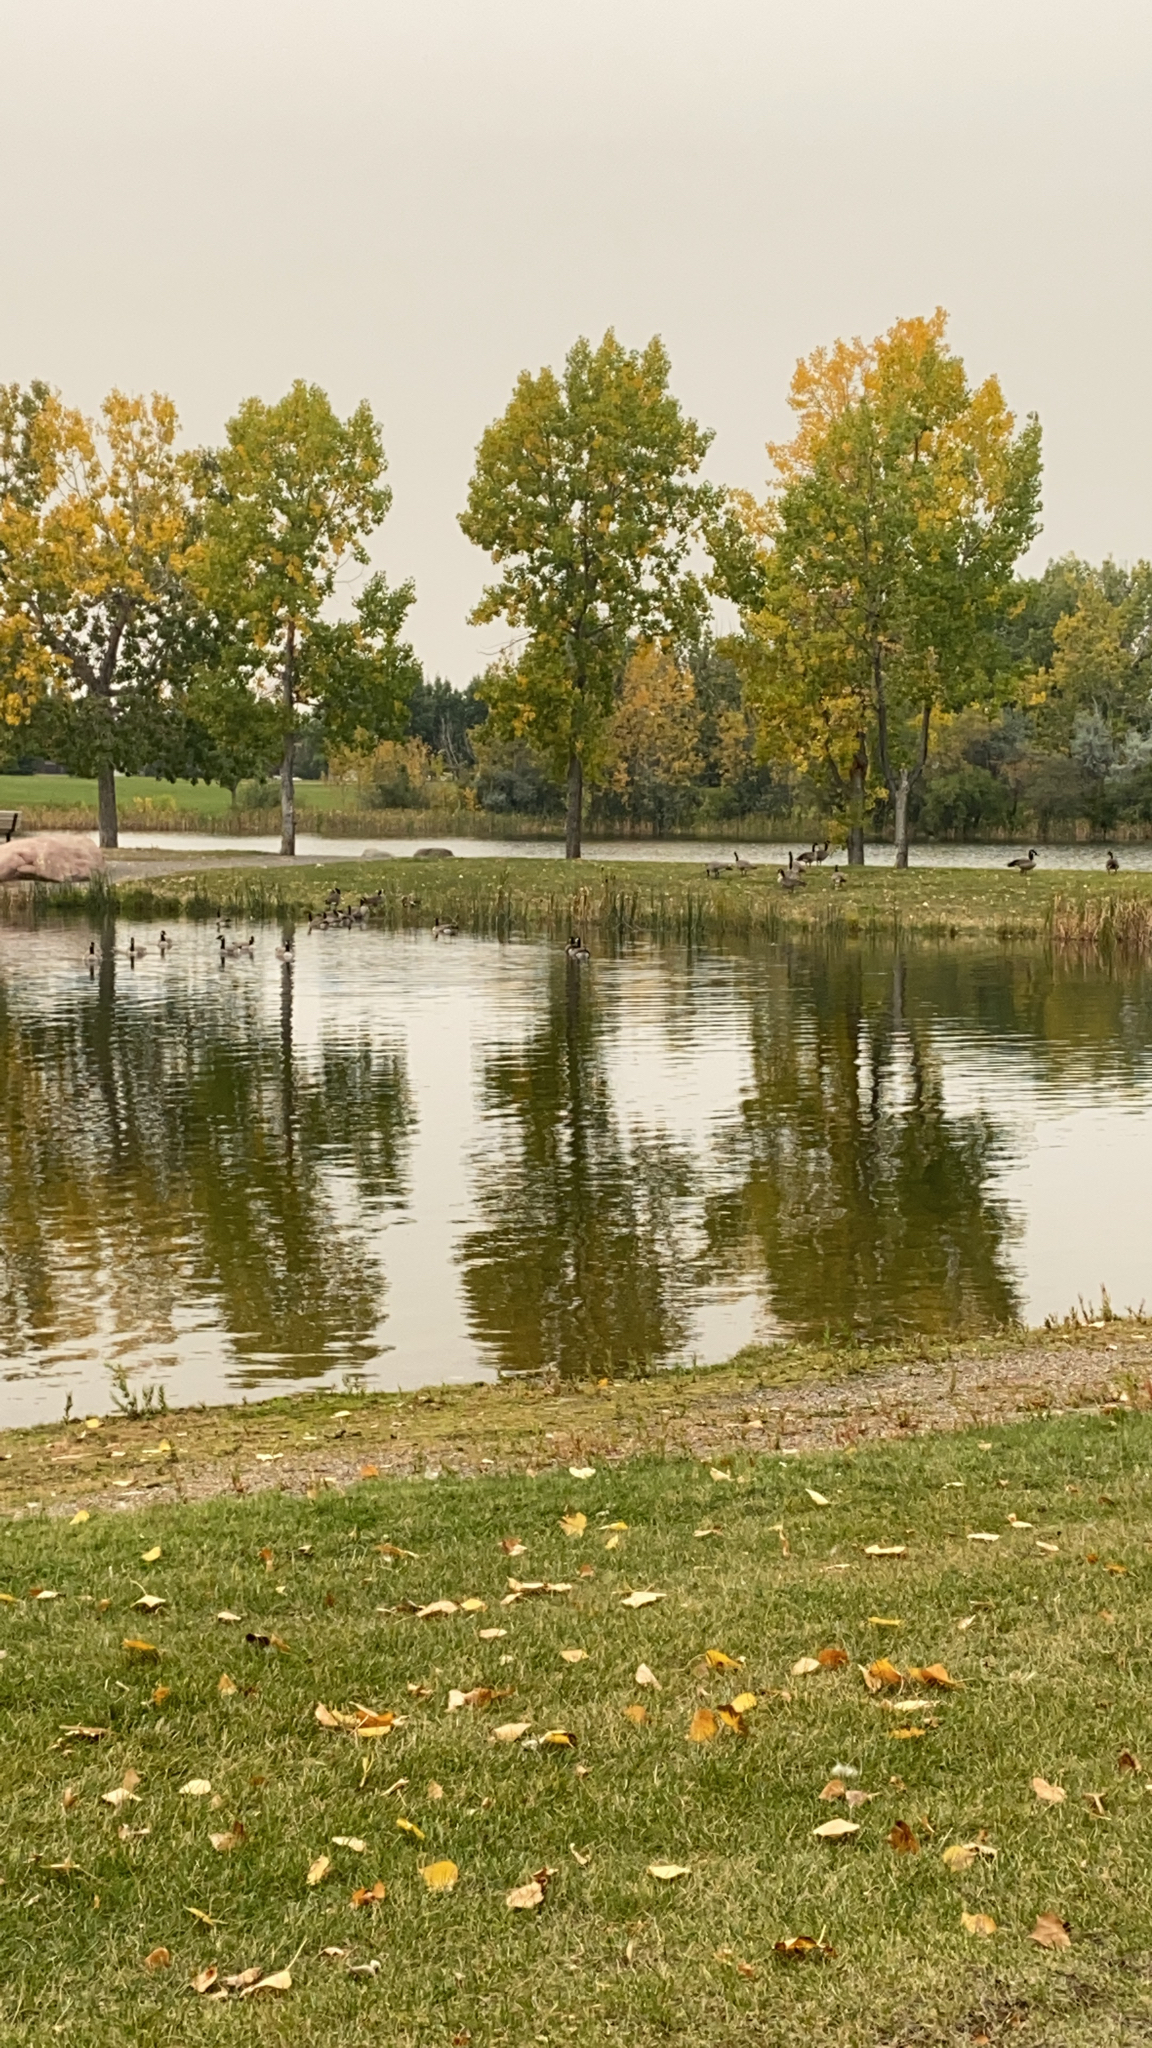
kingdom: Animalia
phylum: Chordata
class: Aves
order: Anseriformes
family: Anatidae
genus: Branta
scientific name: Branta canadensis
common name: Canada goose
